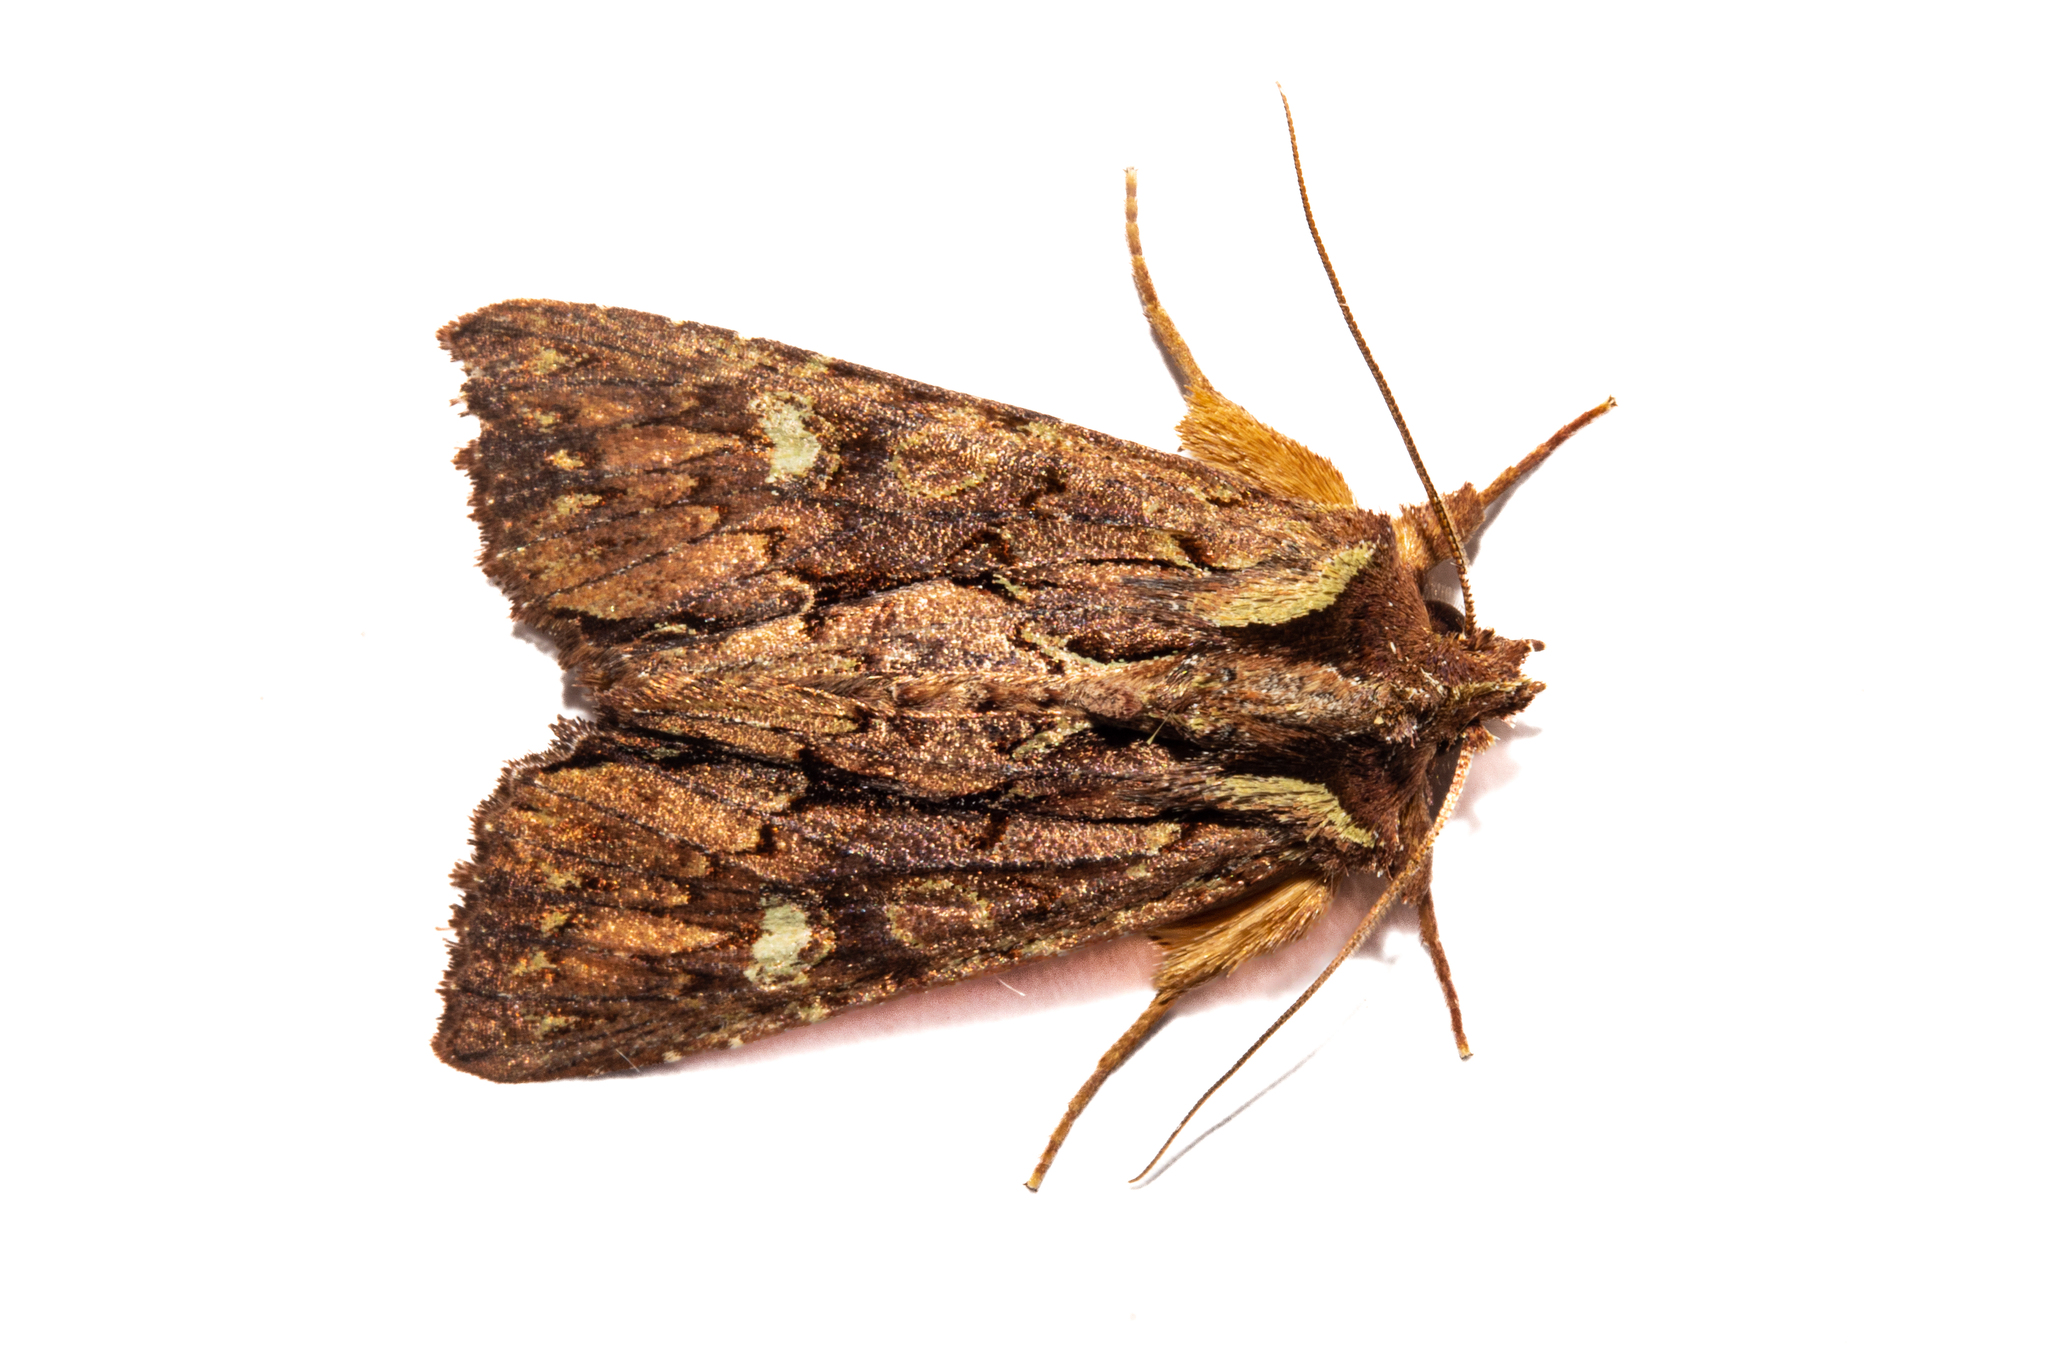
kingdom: Animalia
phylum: Arthropoda
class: Insecta
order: Lepidoptera
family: Noctuidae
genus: Meterana
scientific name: Meterana diatmeta
